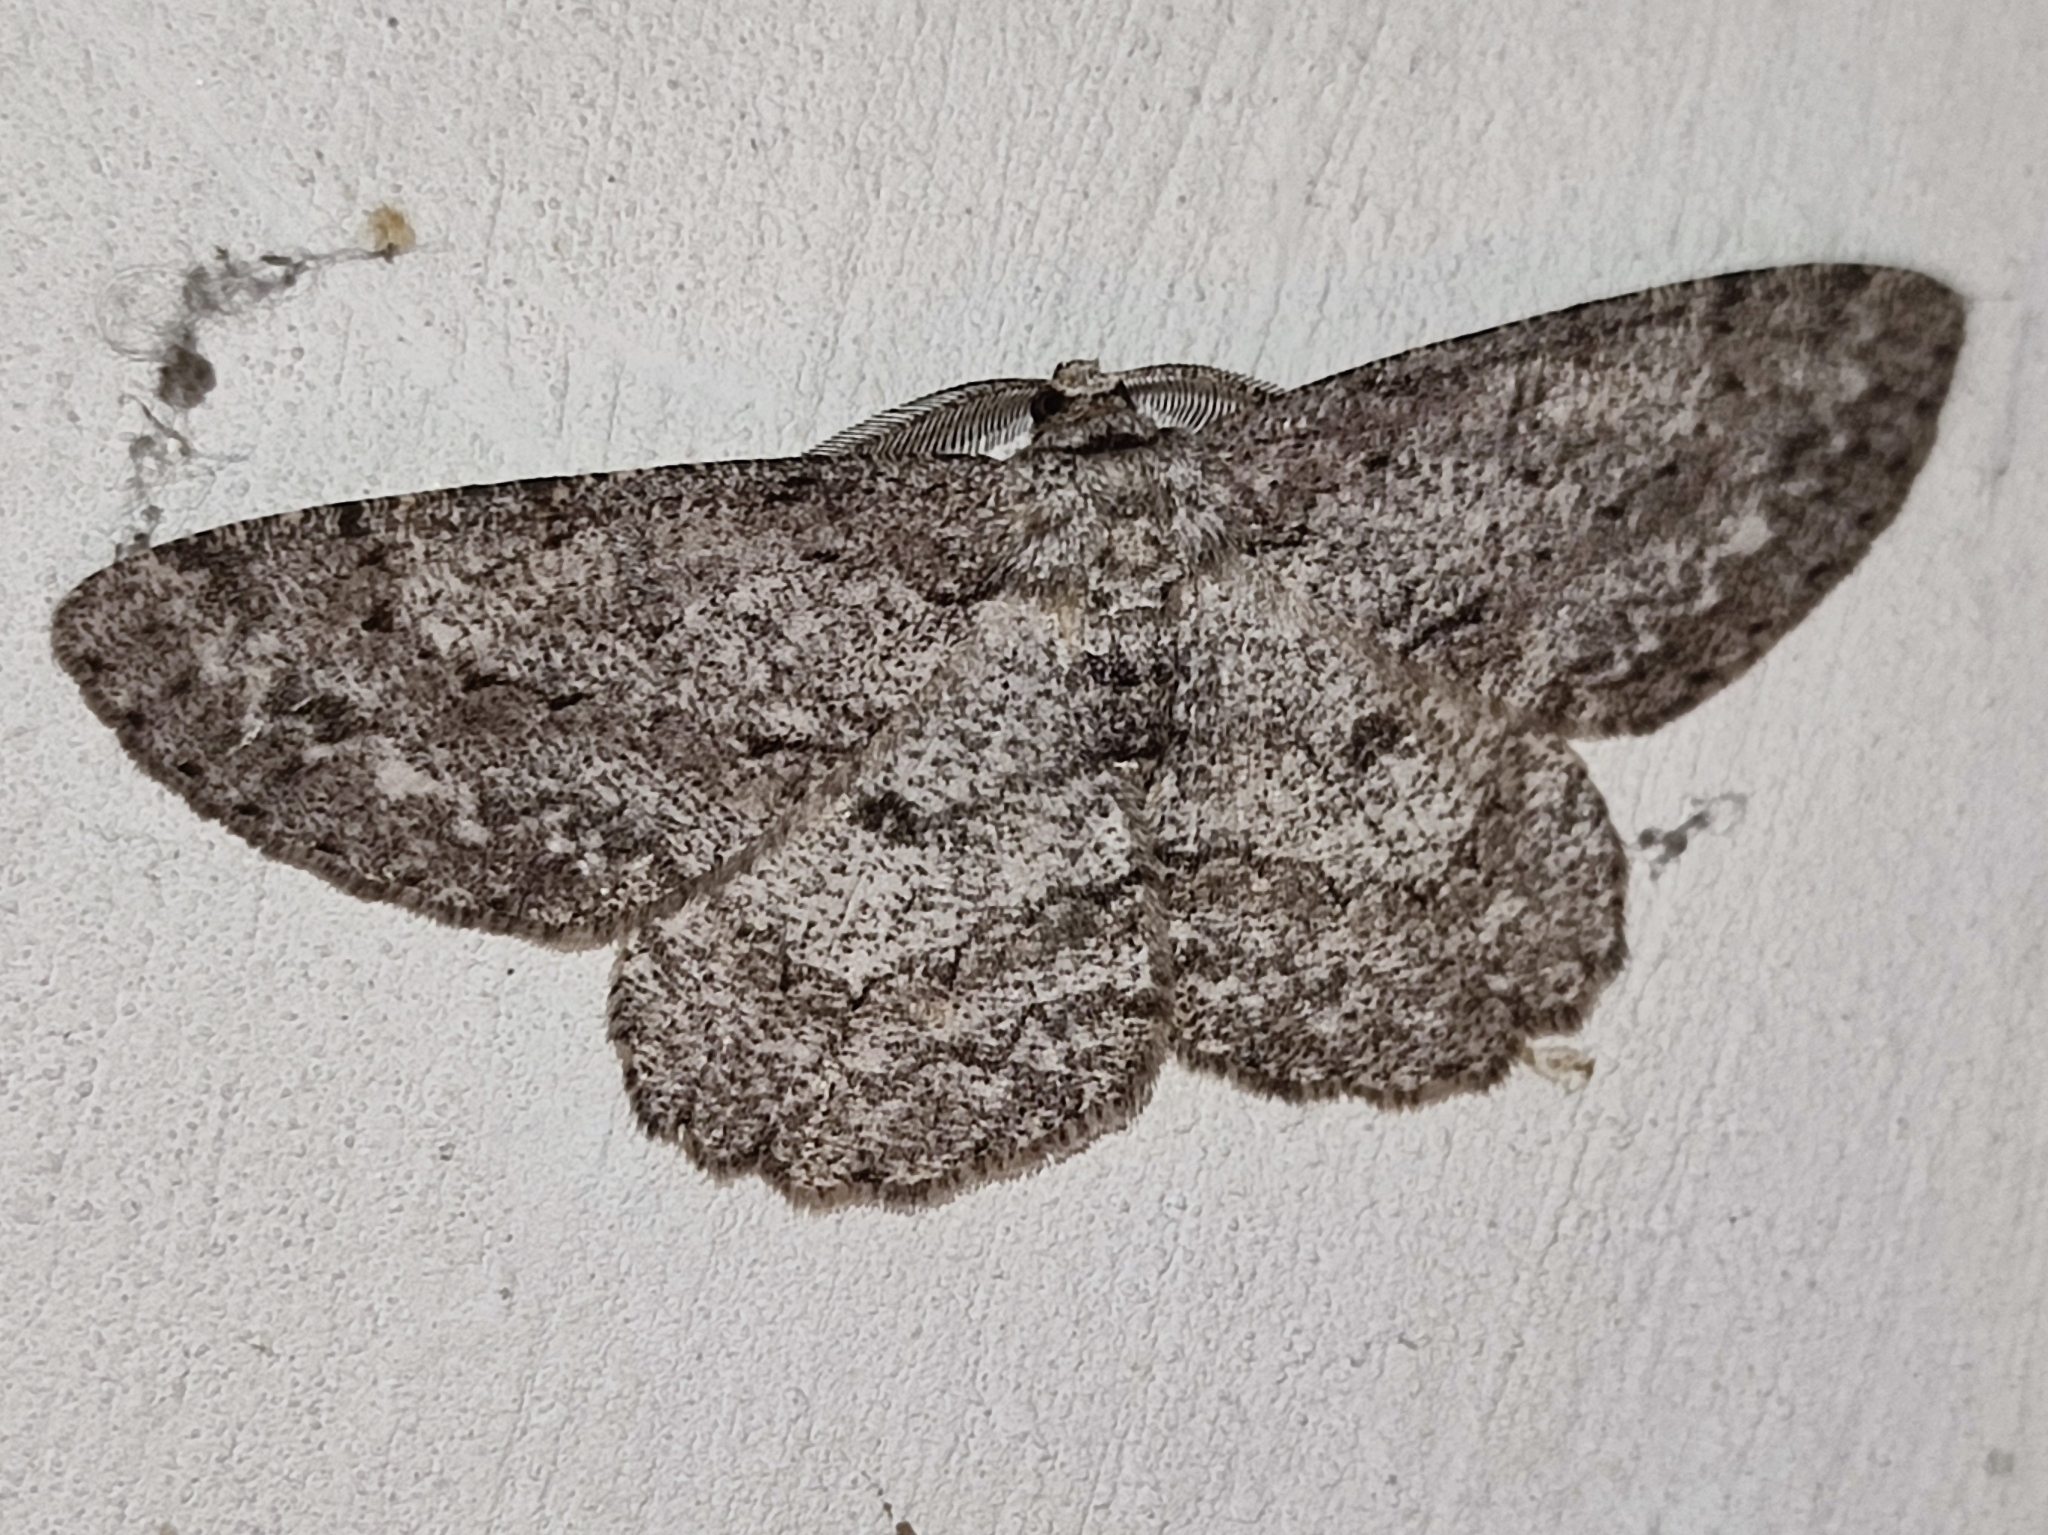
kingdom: Animalia
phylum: Arthropoda
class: Insecta
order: Lepidoptera
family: Geometridae
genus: Hypomecis
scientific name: Hypomecis punctinalis
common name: Pale oak beauty
